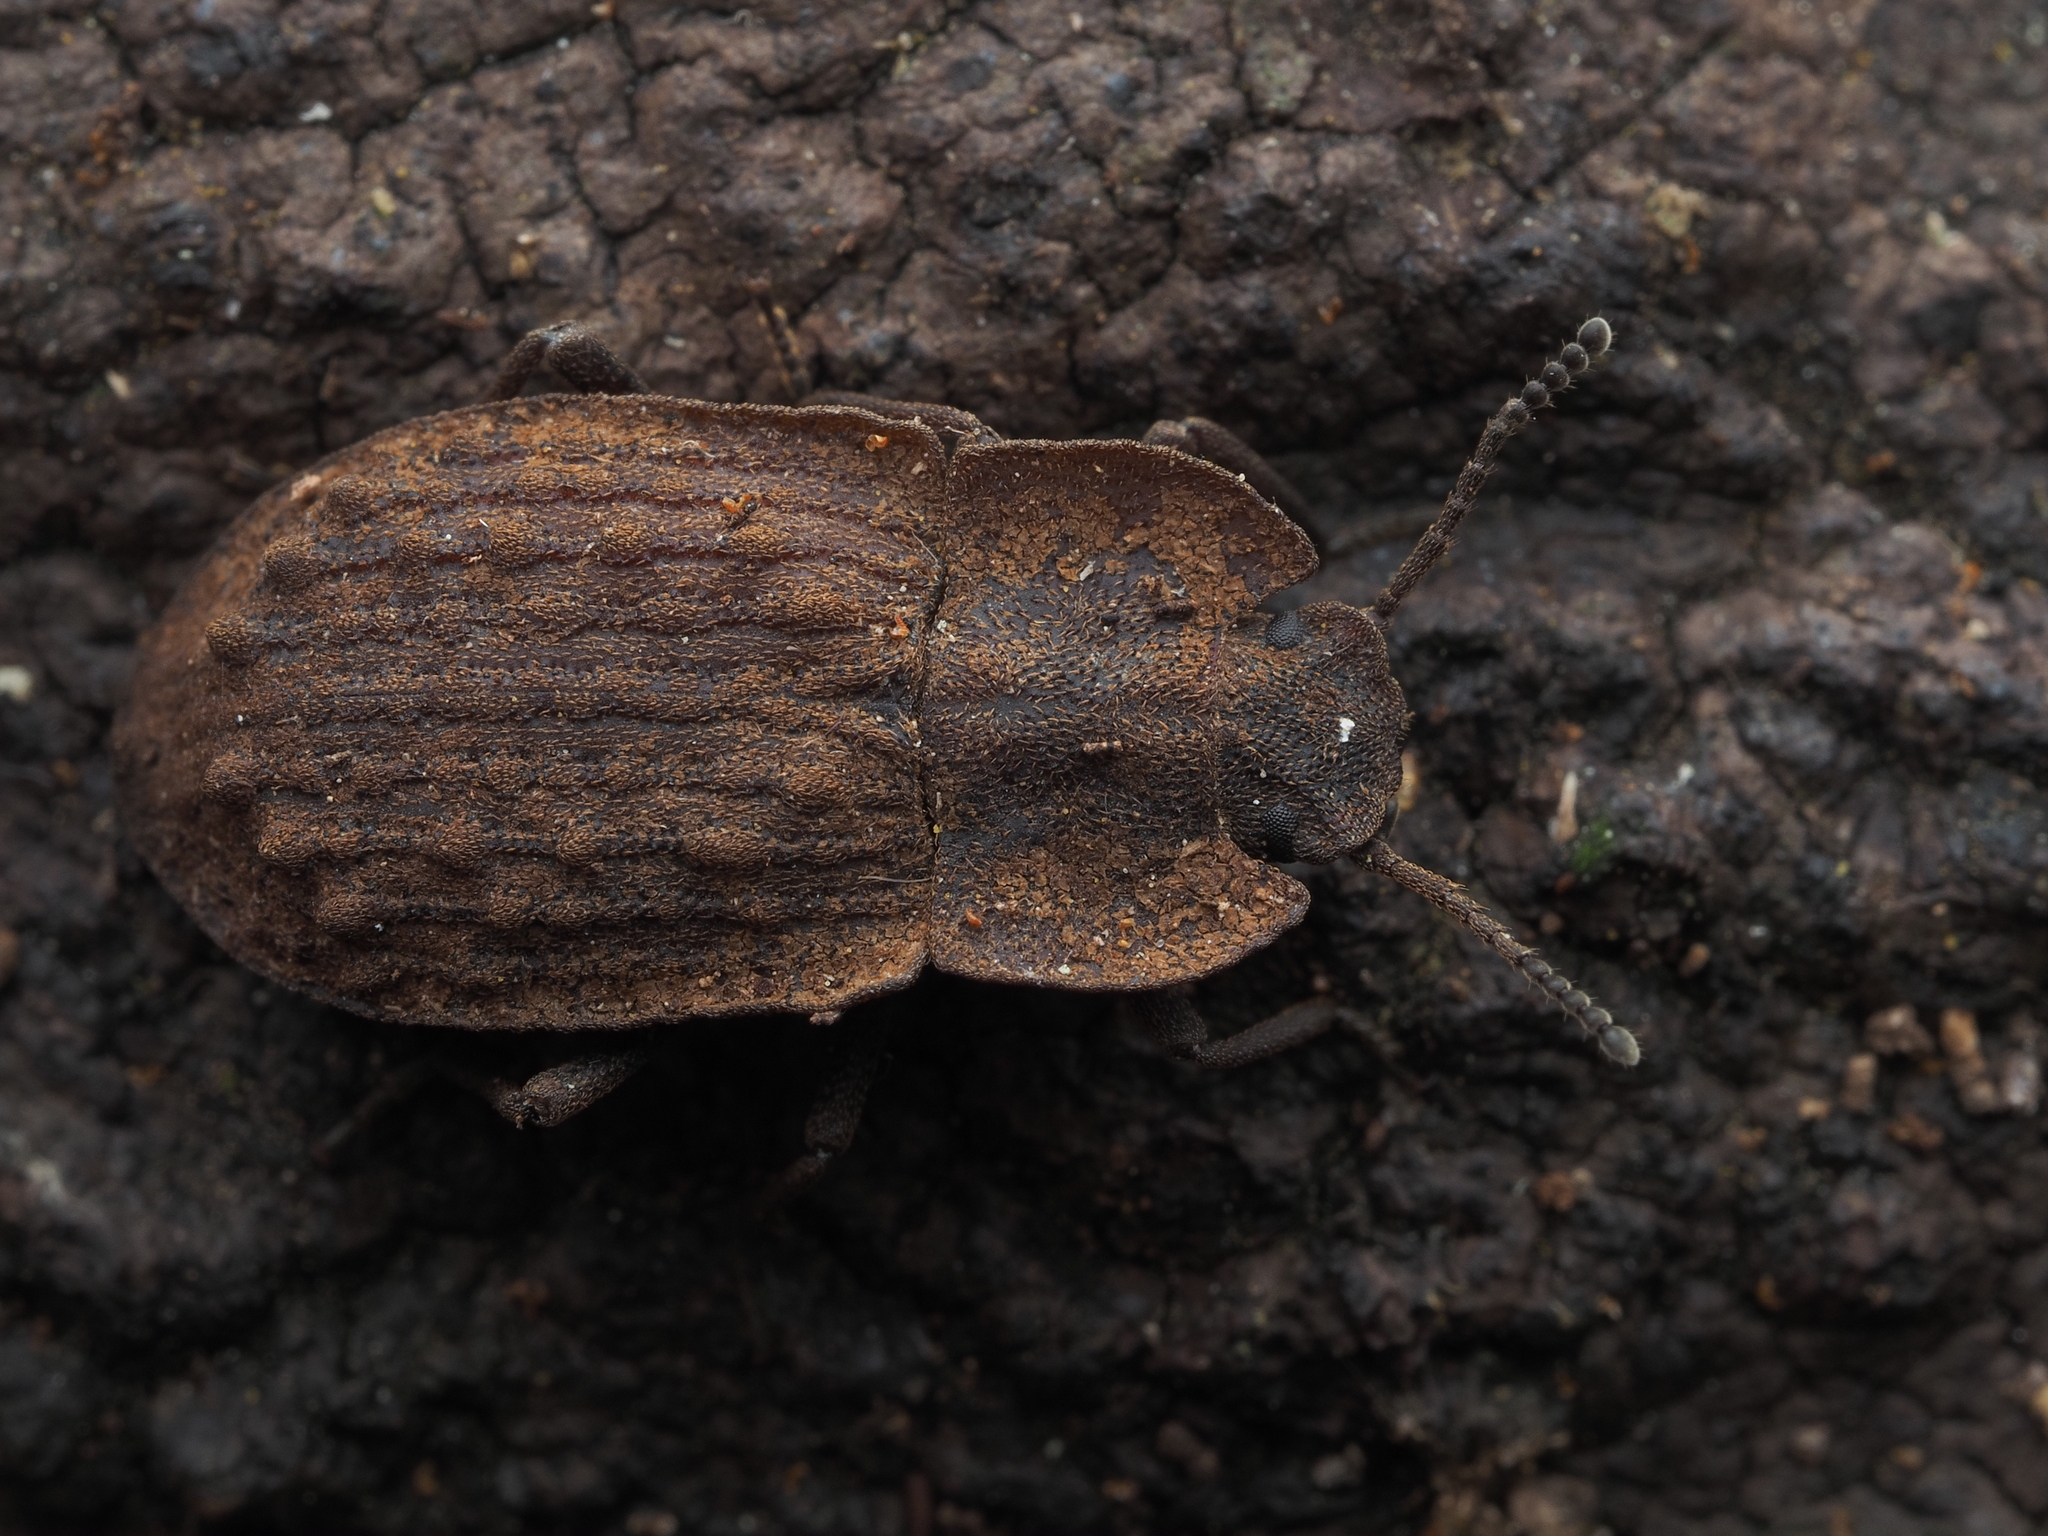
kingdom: Animalia
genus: Mitua
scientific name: Mitua
